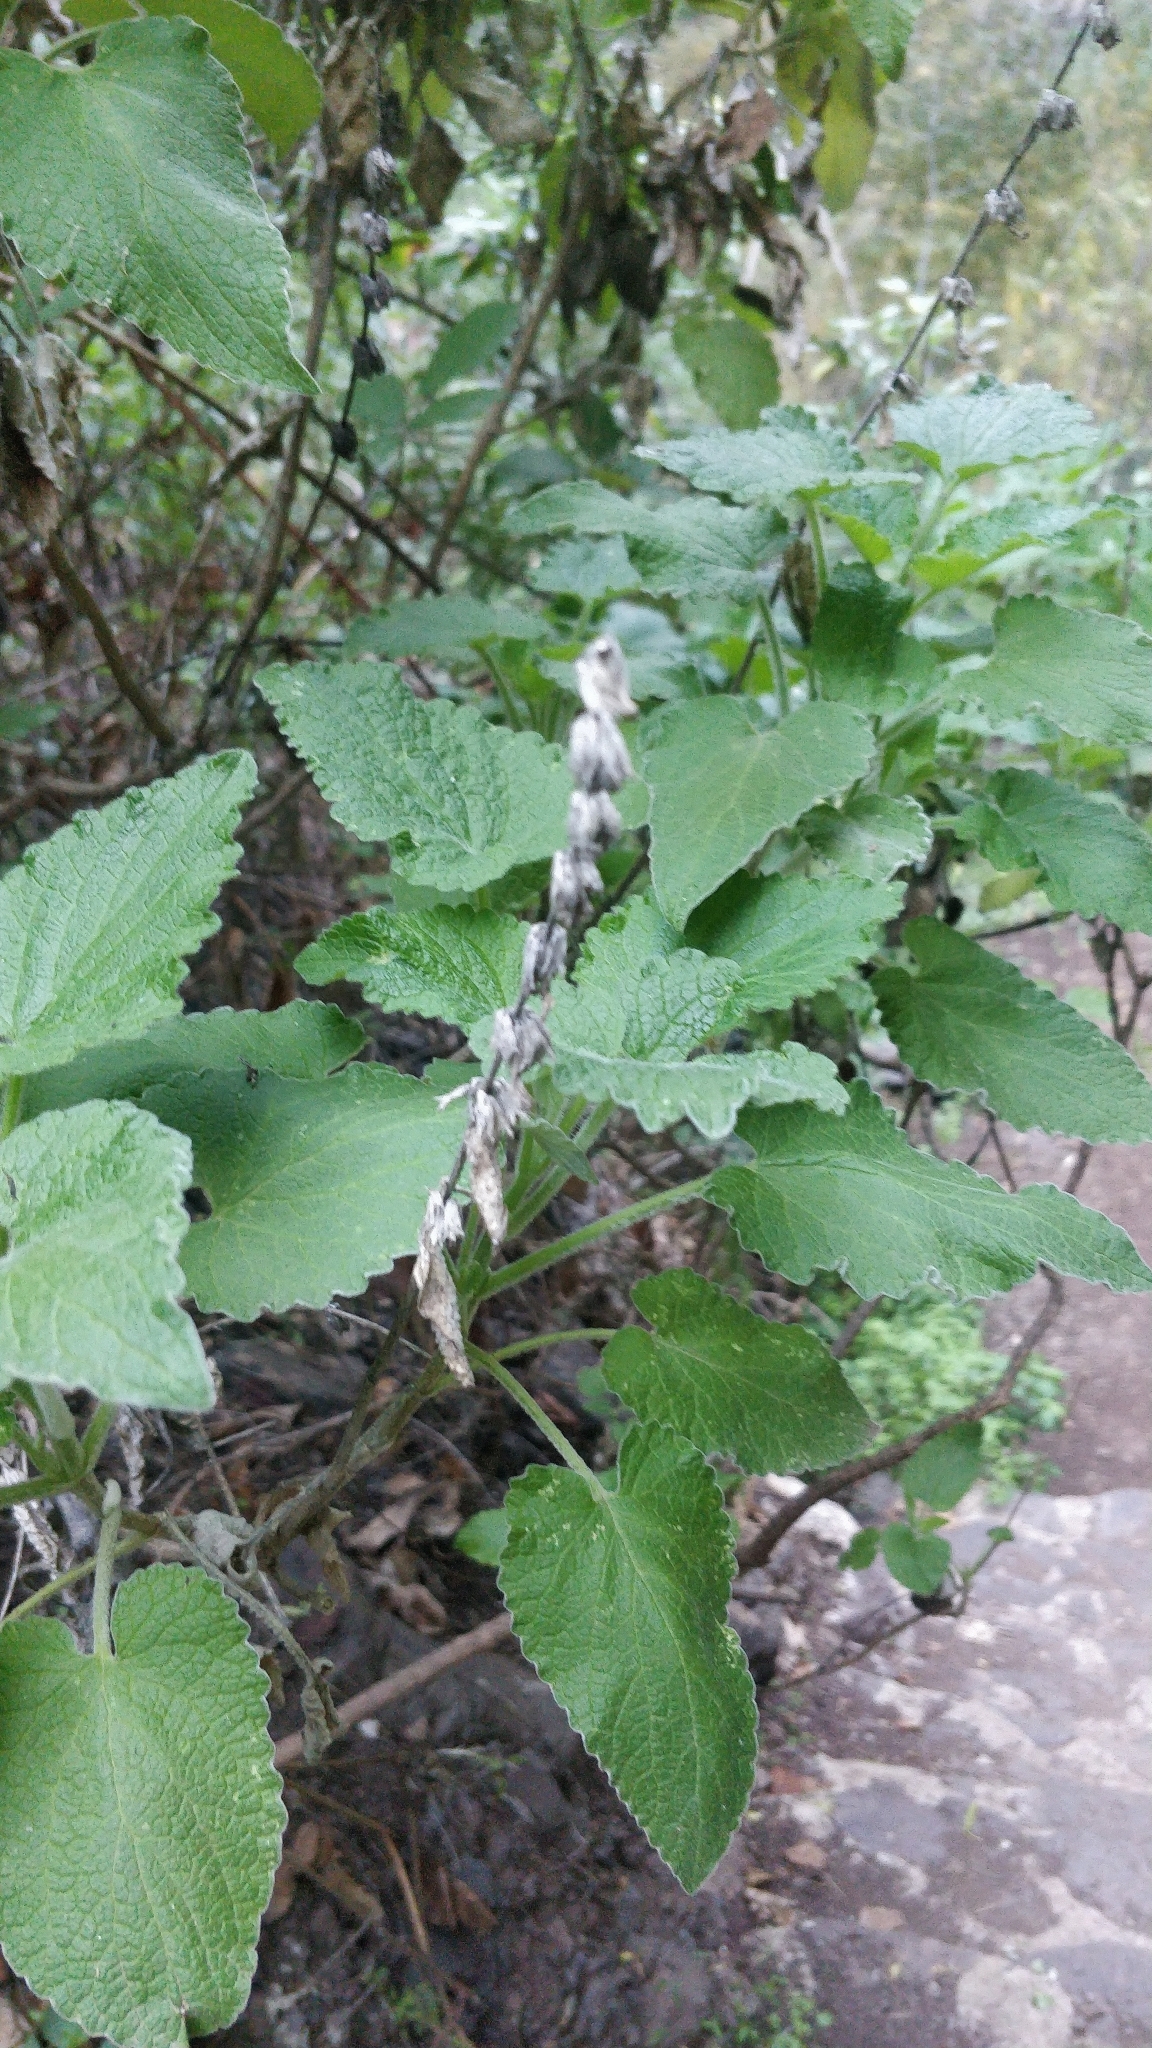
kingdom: Plantae
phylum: Tracheophyta
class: Magnoliopsida
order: Lamiales
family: Lamiaceae
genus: Sideritis
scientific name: Sideritis infernalis
